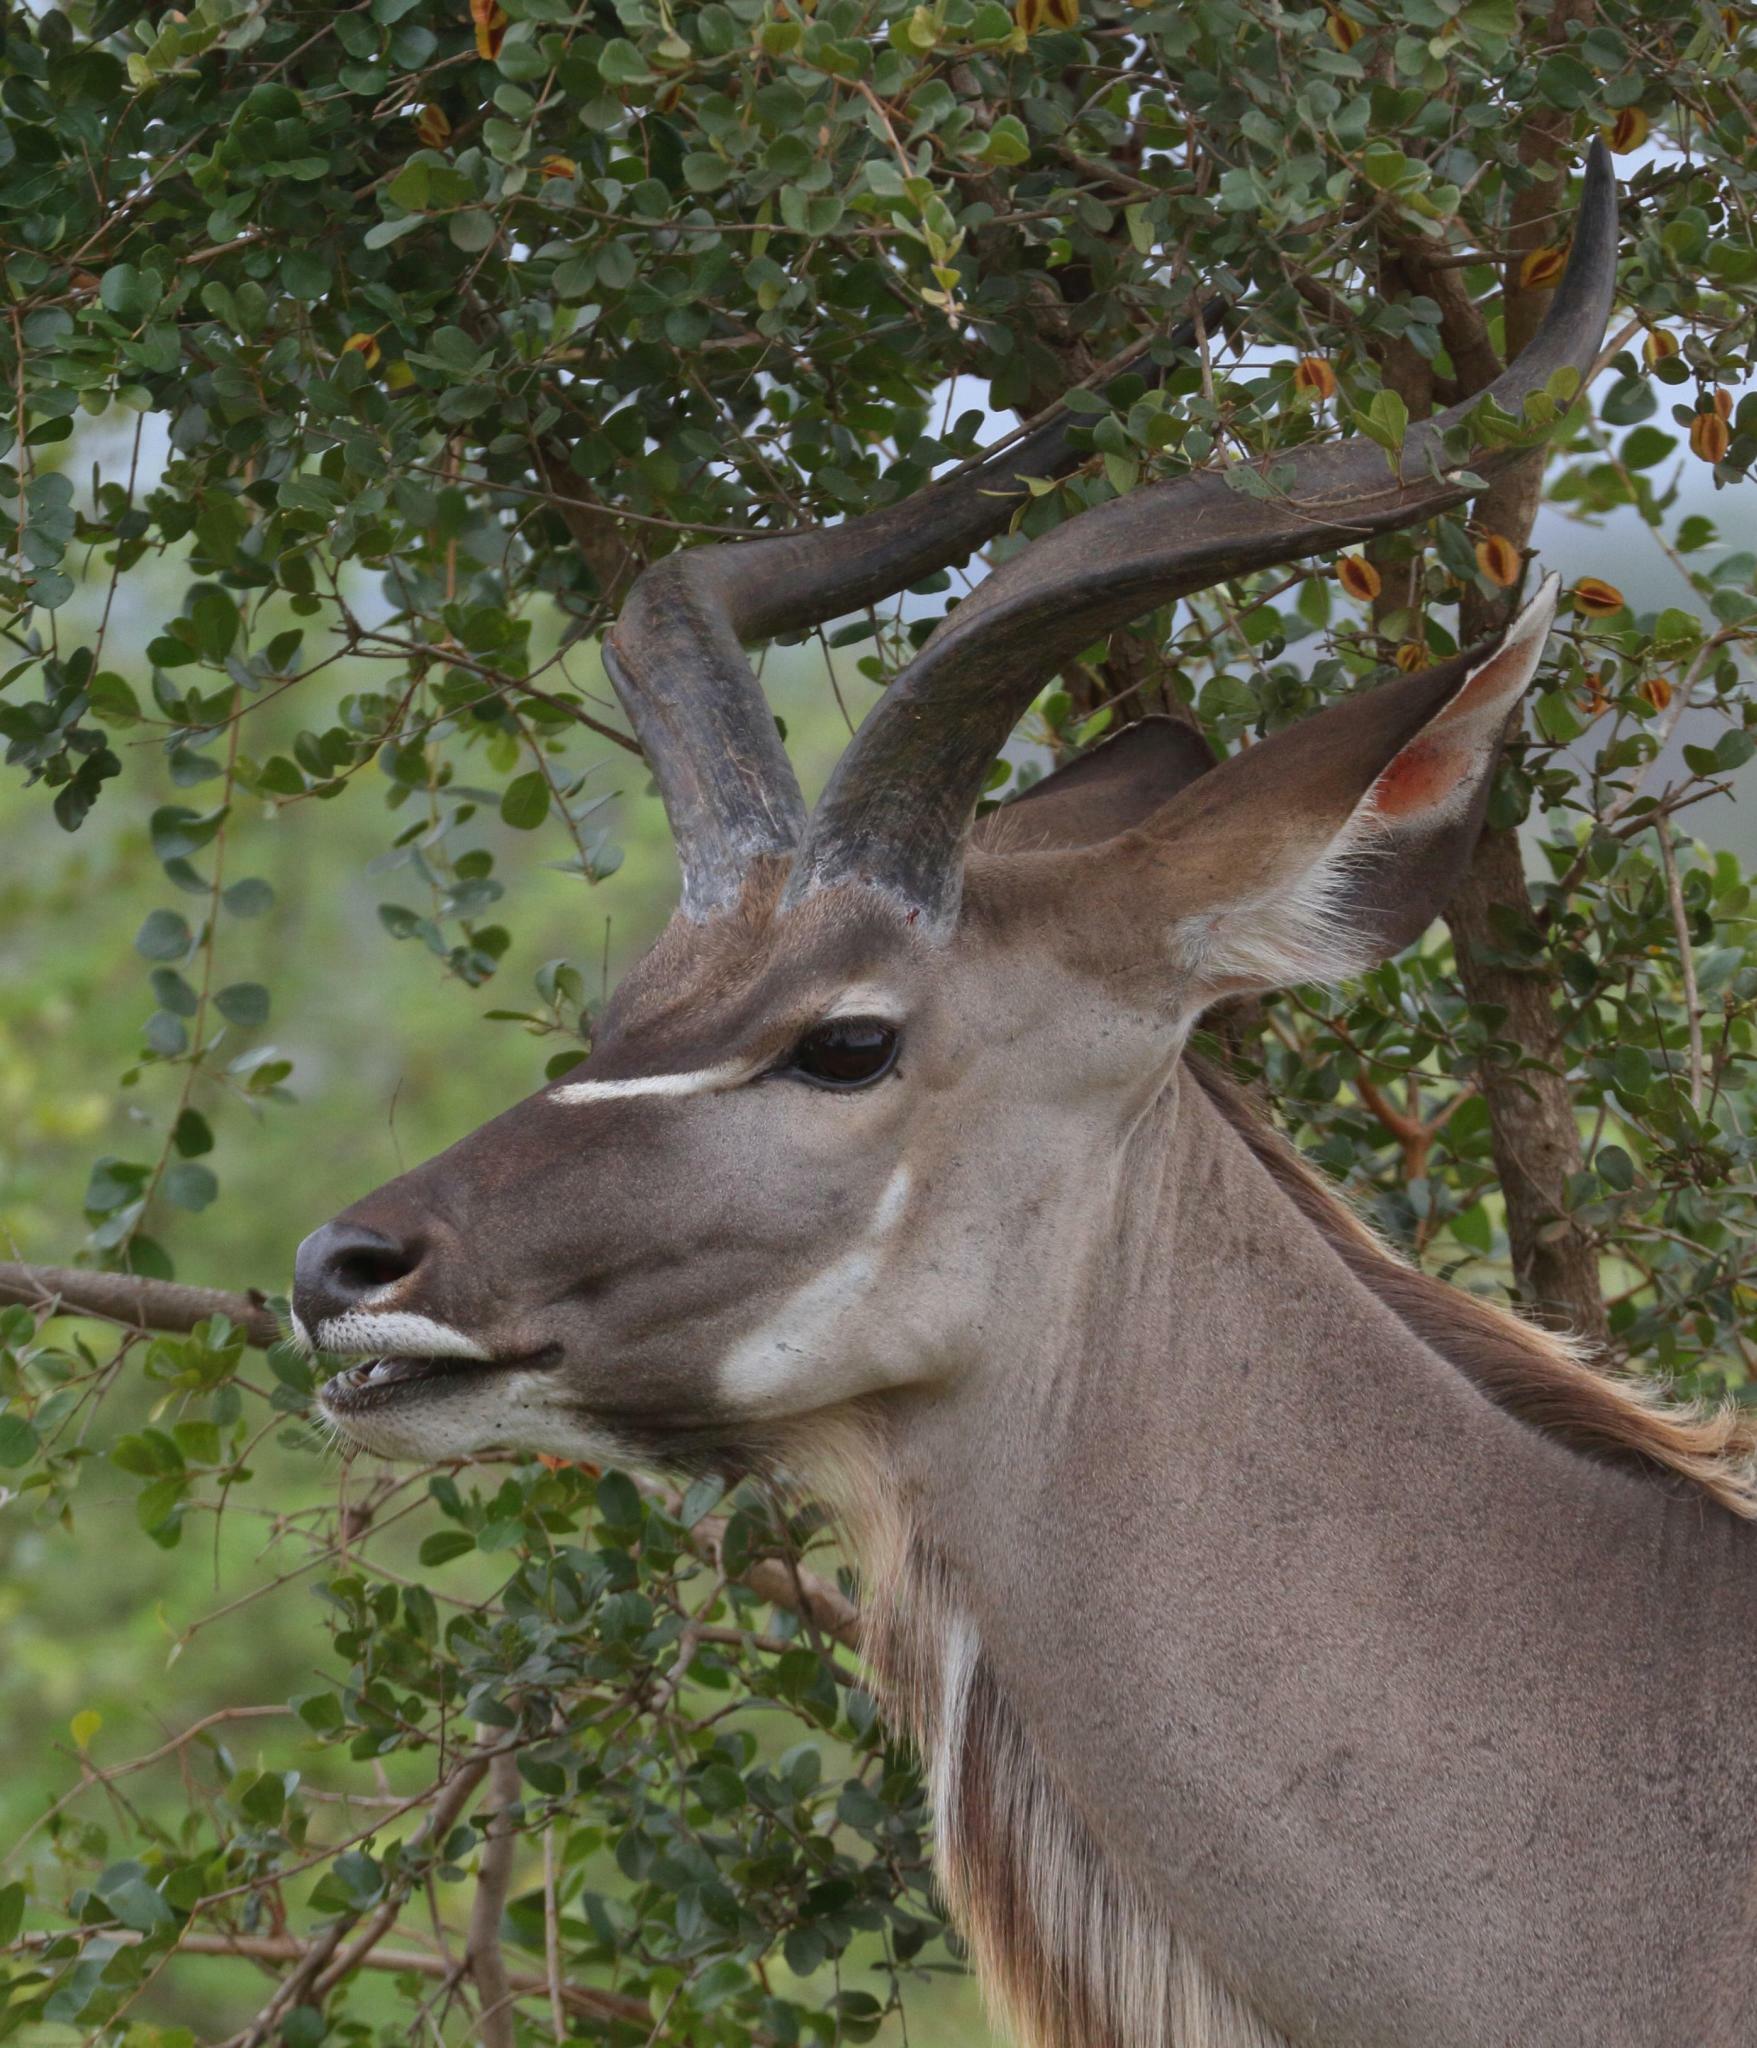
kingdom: Animalia
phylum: Chordata
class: Mammalia
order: Artiodactyla
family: Bovidae
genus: Tragelaphus
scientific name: Tragelaphus strepsiceros
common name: Greater kudu
